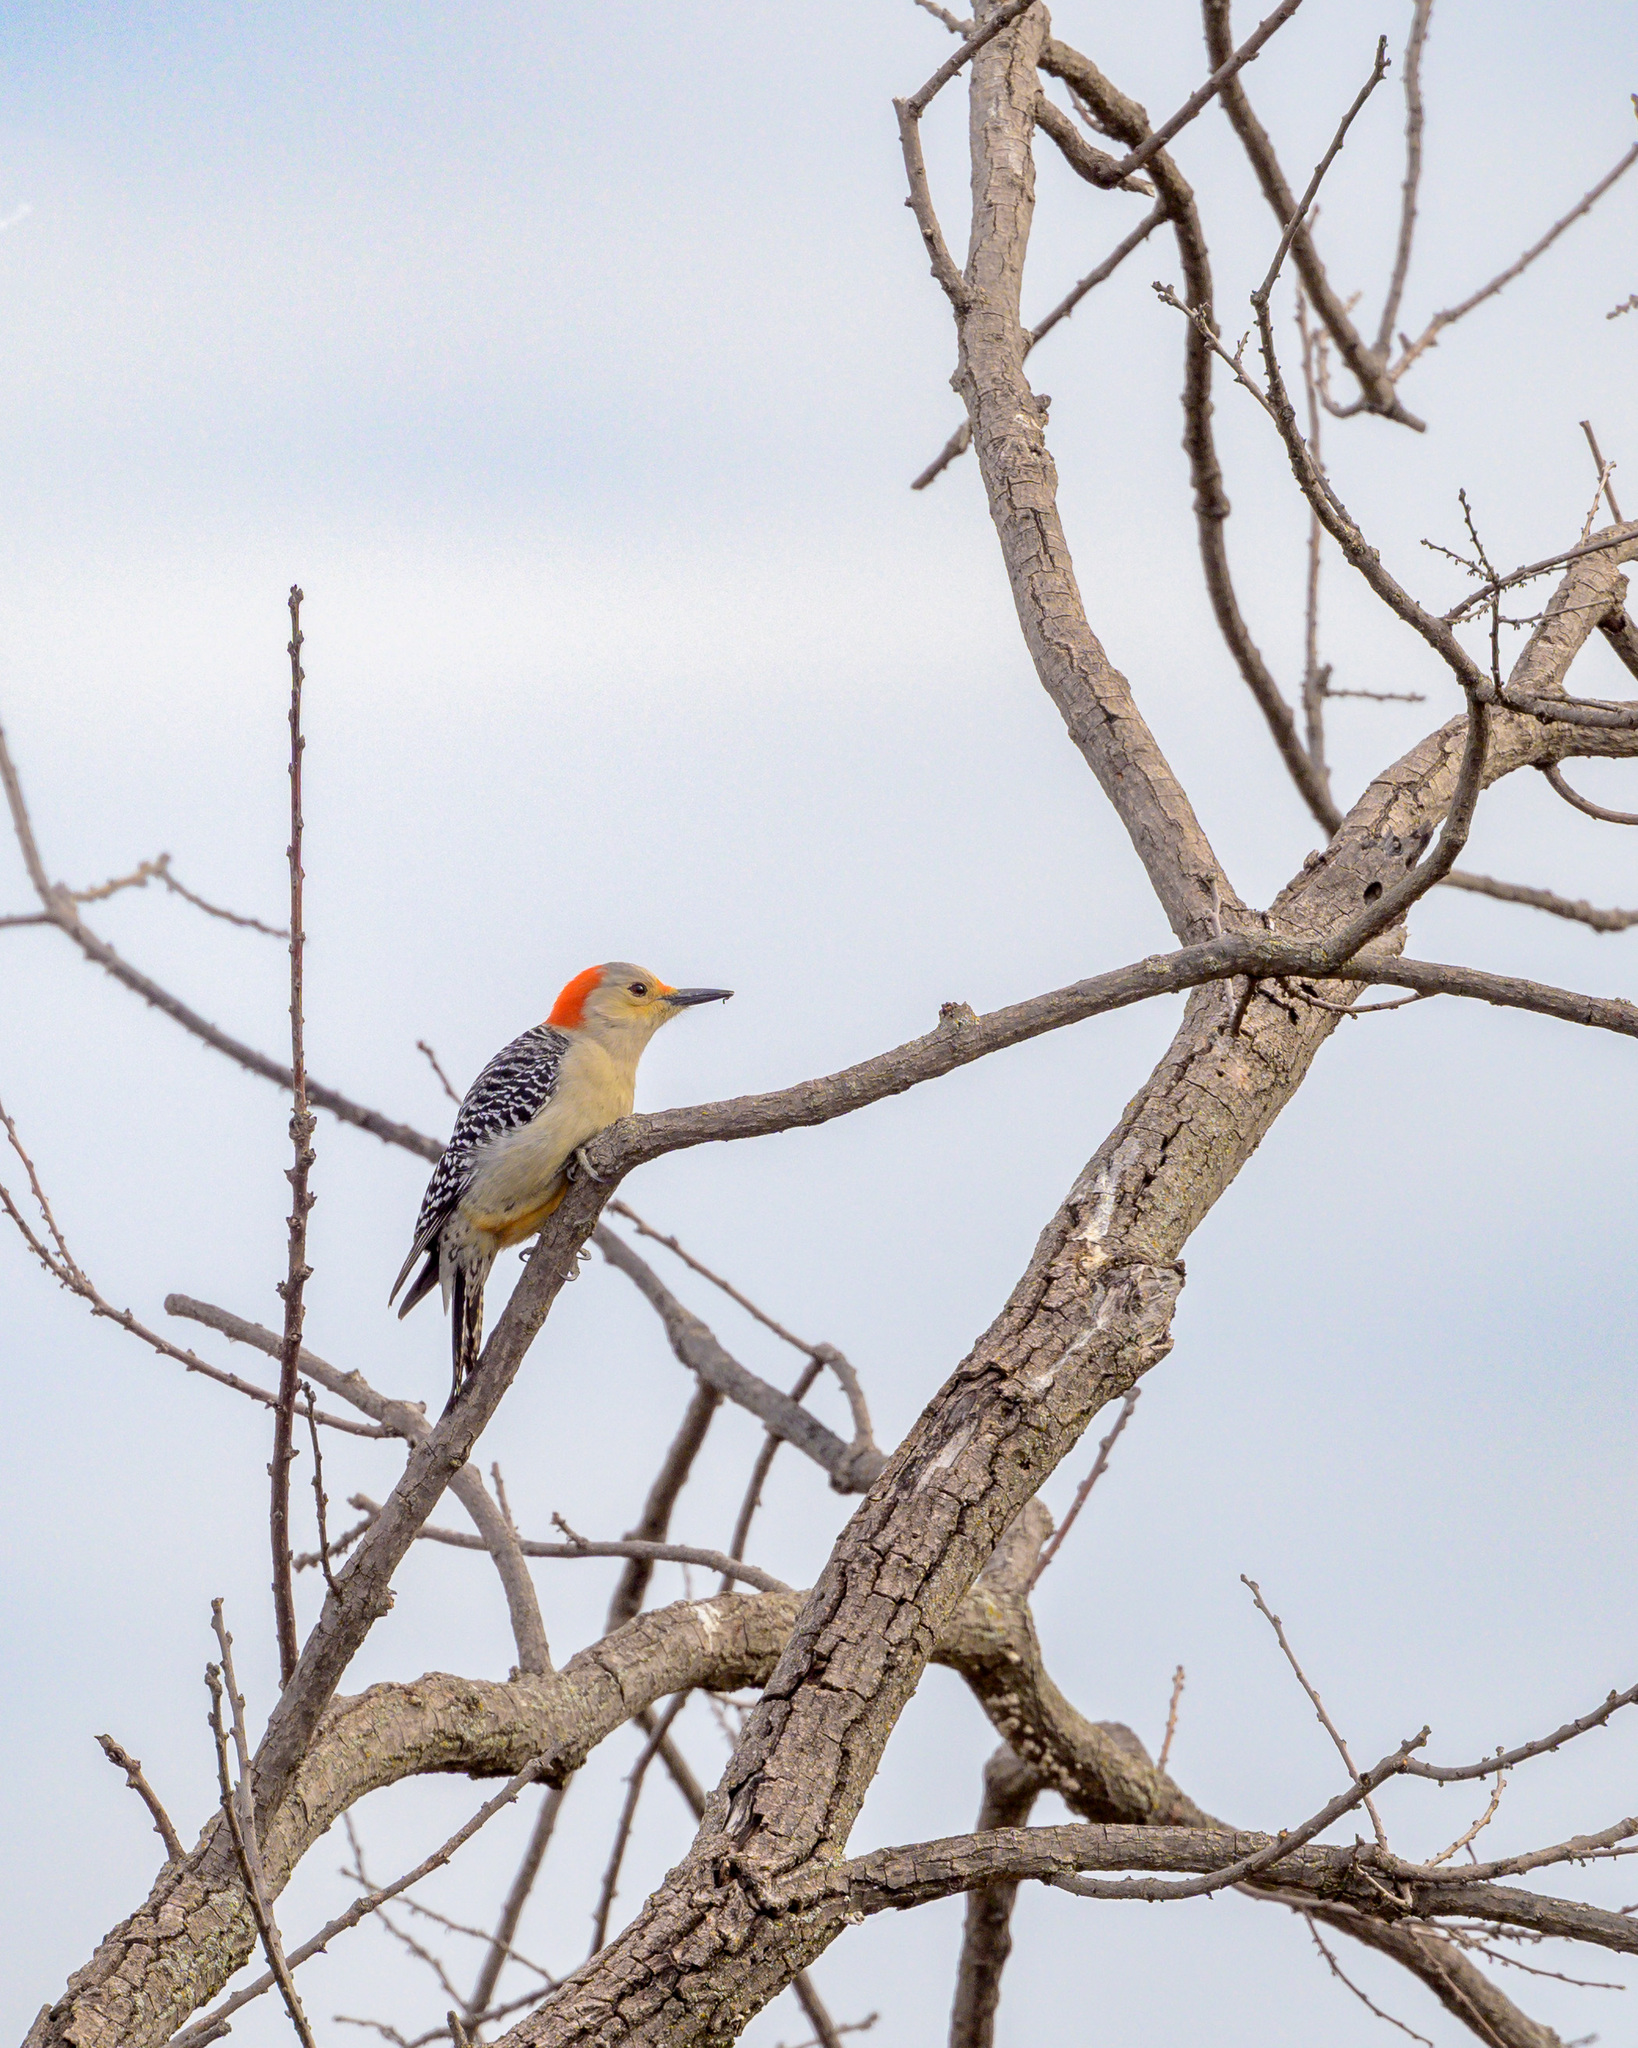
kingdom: Animalia
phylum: Chordata
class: Aves
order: Piciformes
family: Picidae
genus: Melanerpes
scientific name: Melanerpes carolinus
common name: Red-bellied woodpecker
